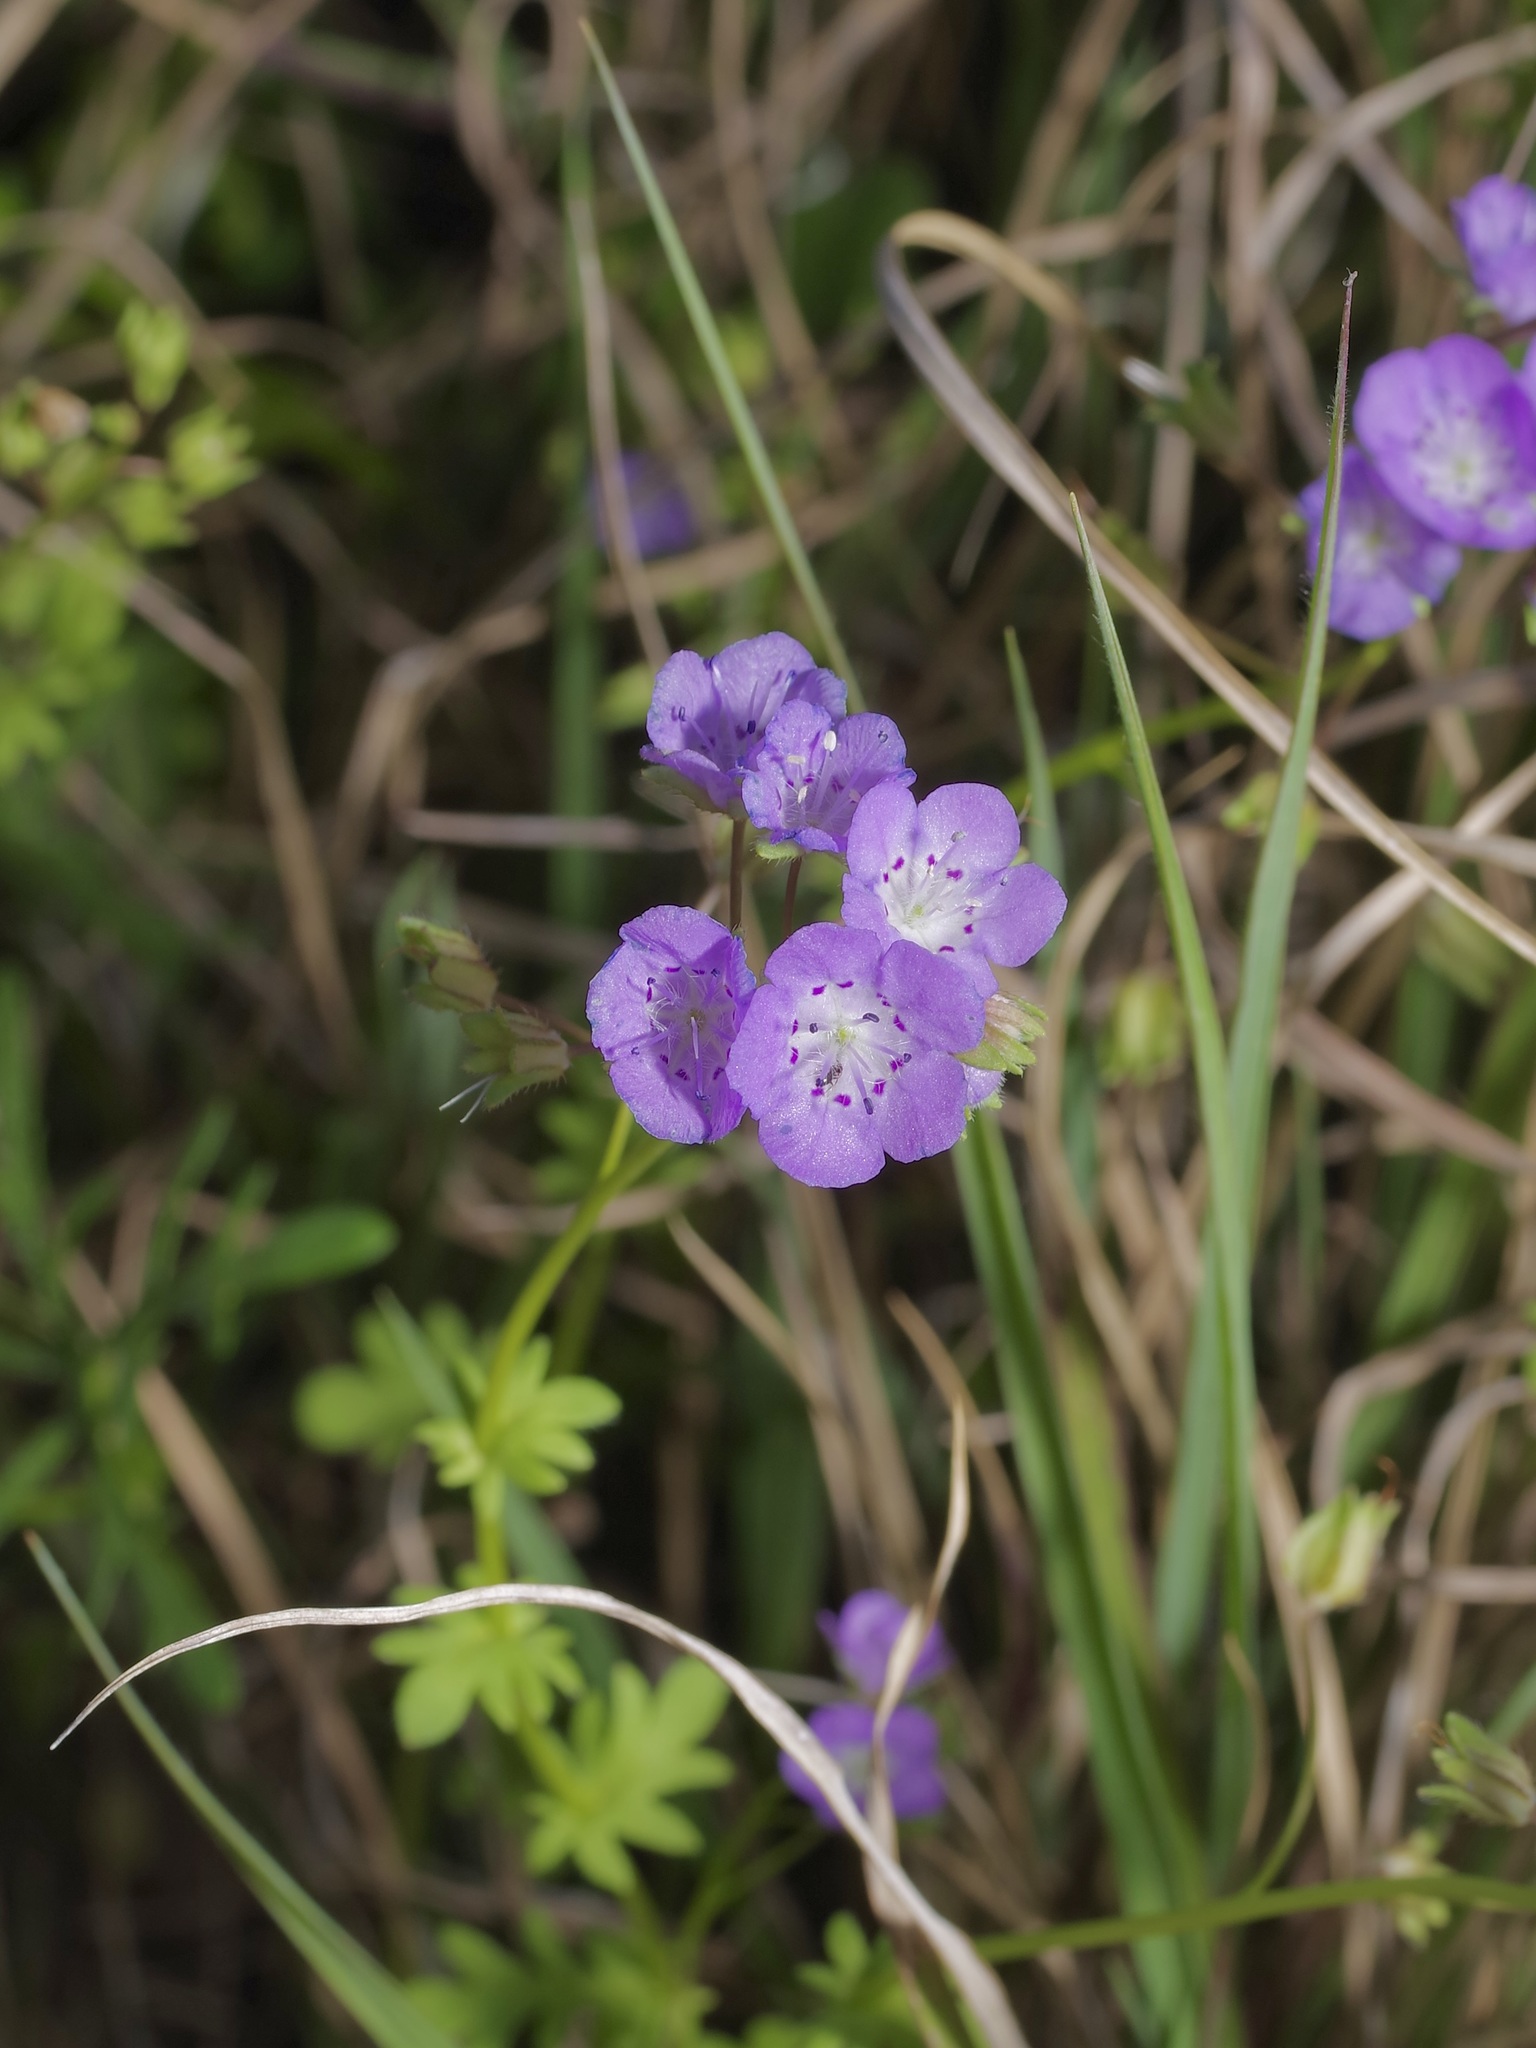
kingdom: Plantae
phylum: Tracheophyta
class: Magnoliopsida
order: Boraginales
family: Hydrophyllaceae
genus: Phacelia
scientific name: Phacelia glabra
